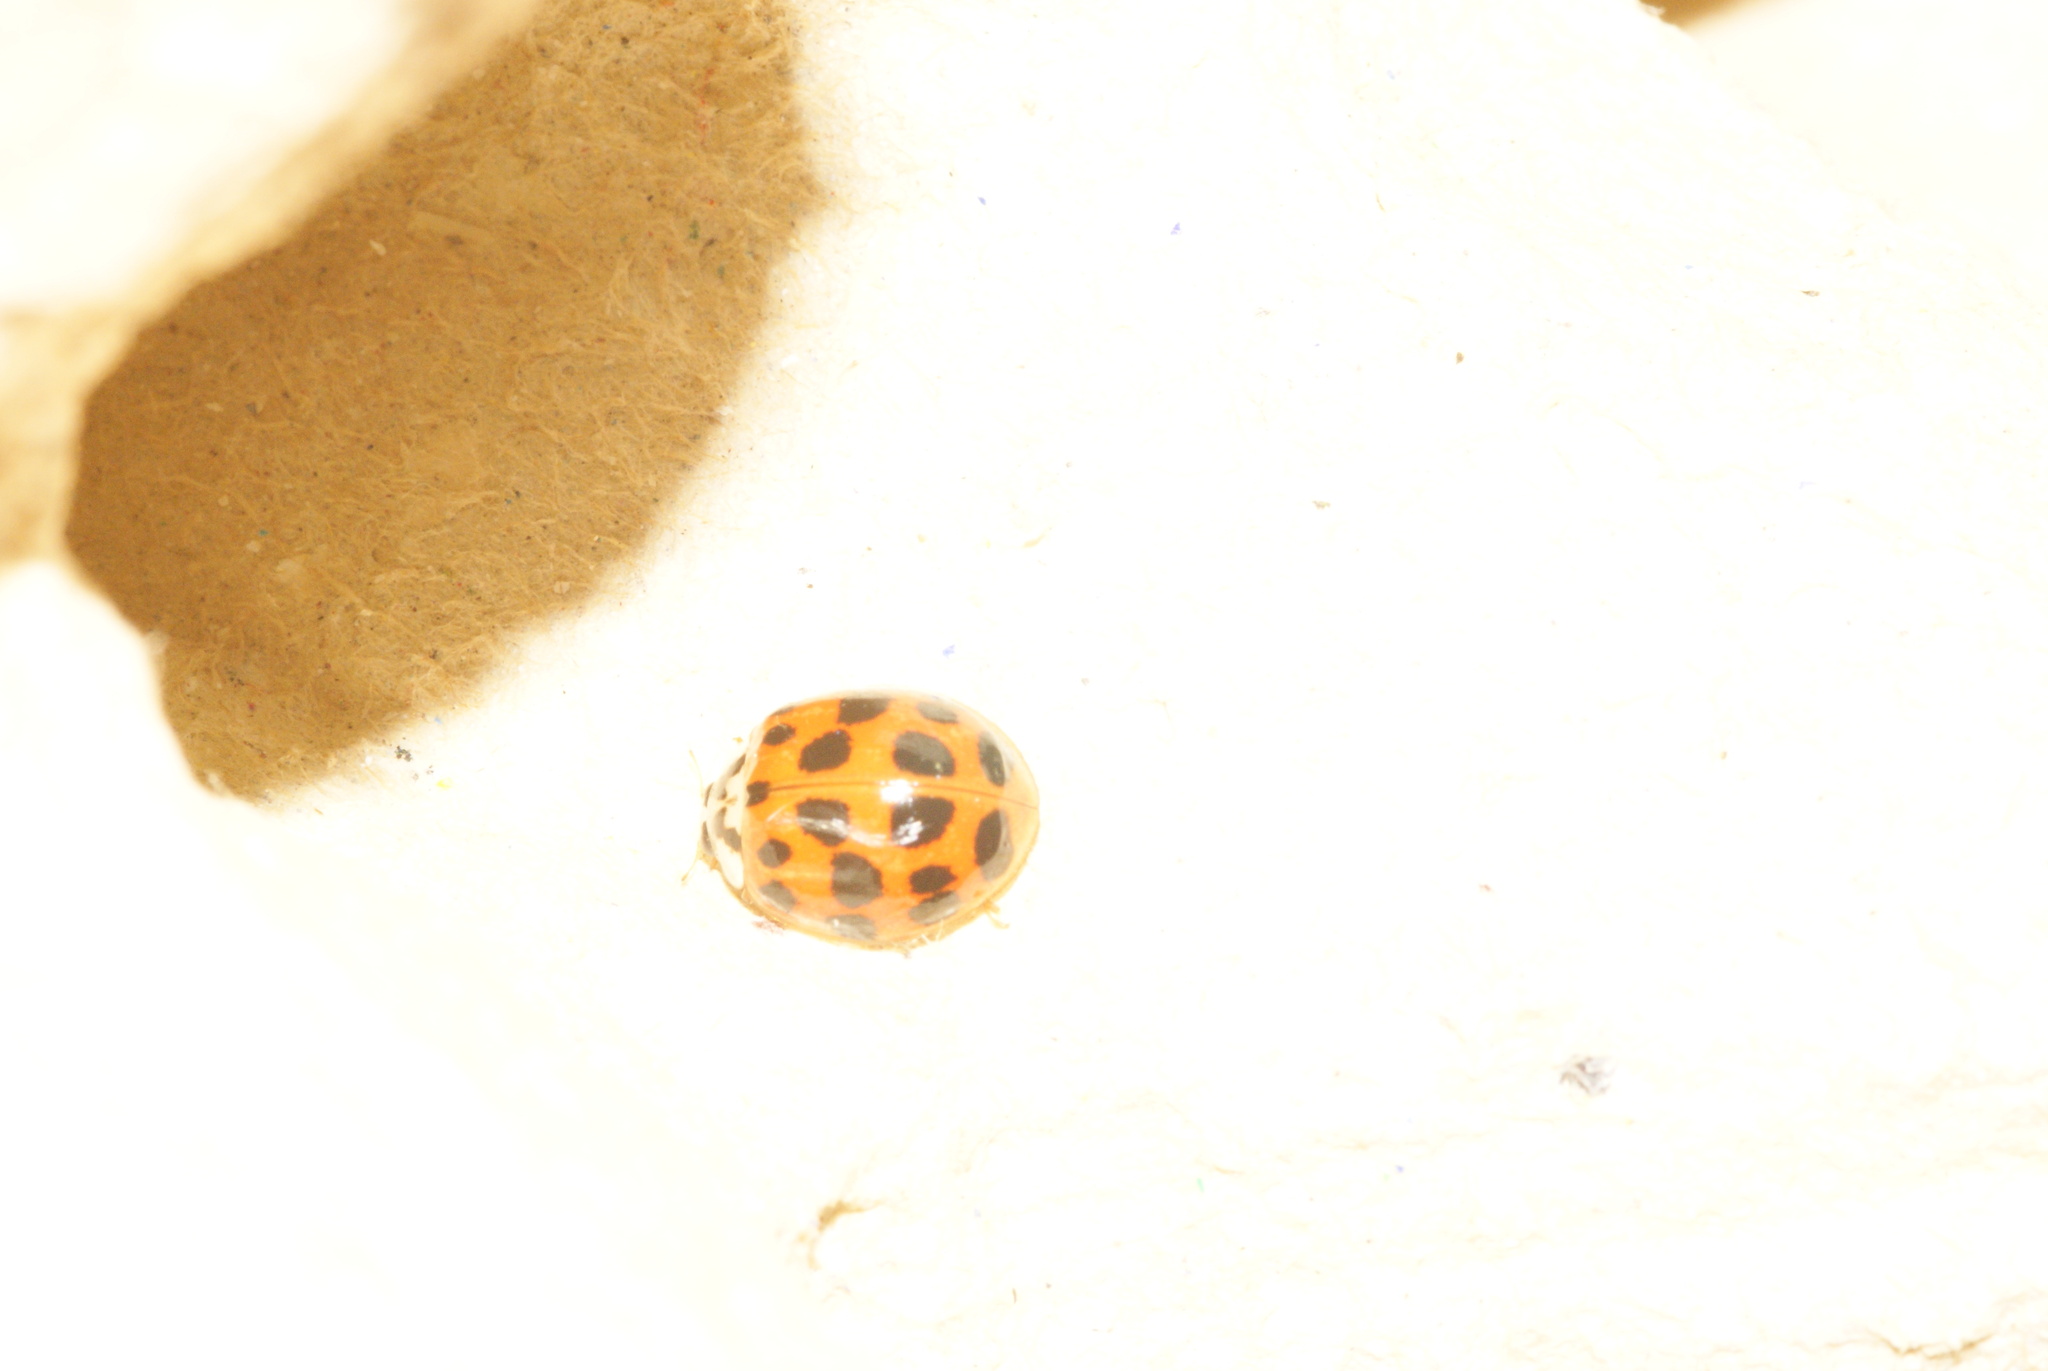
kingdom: Animalia
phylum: Arthropoda
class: Insecta
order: Coleoptera
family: Coccinellidae
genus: Harmonia
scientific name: Harmonia axyridis
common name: Harlequin ladybird
